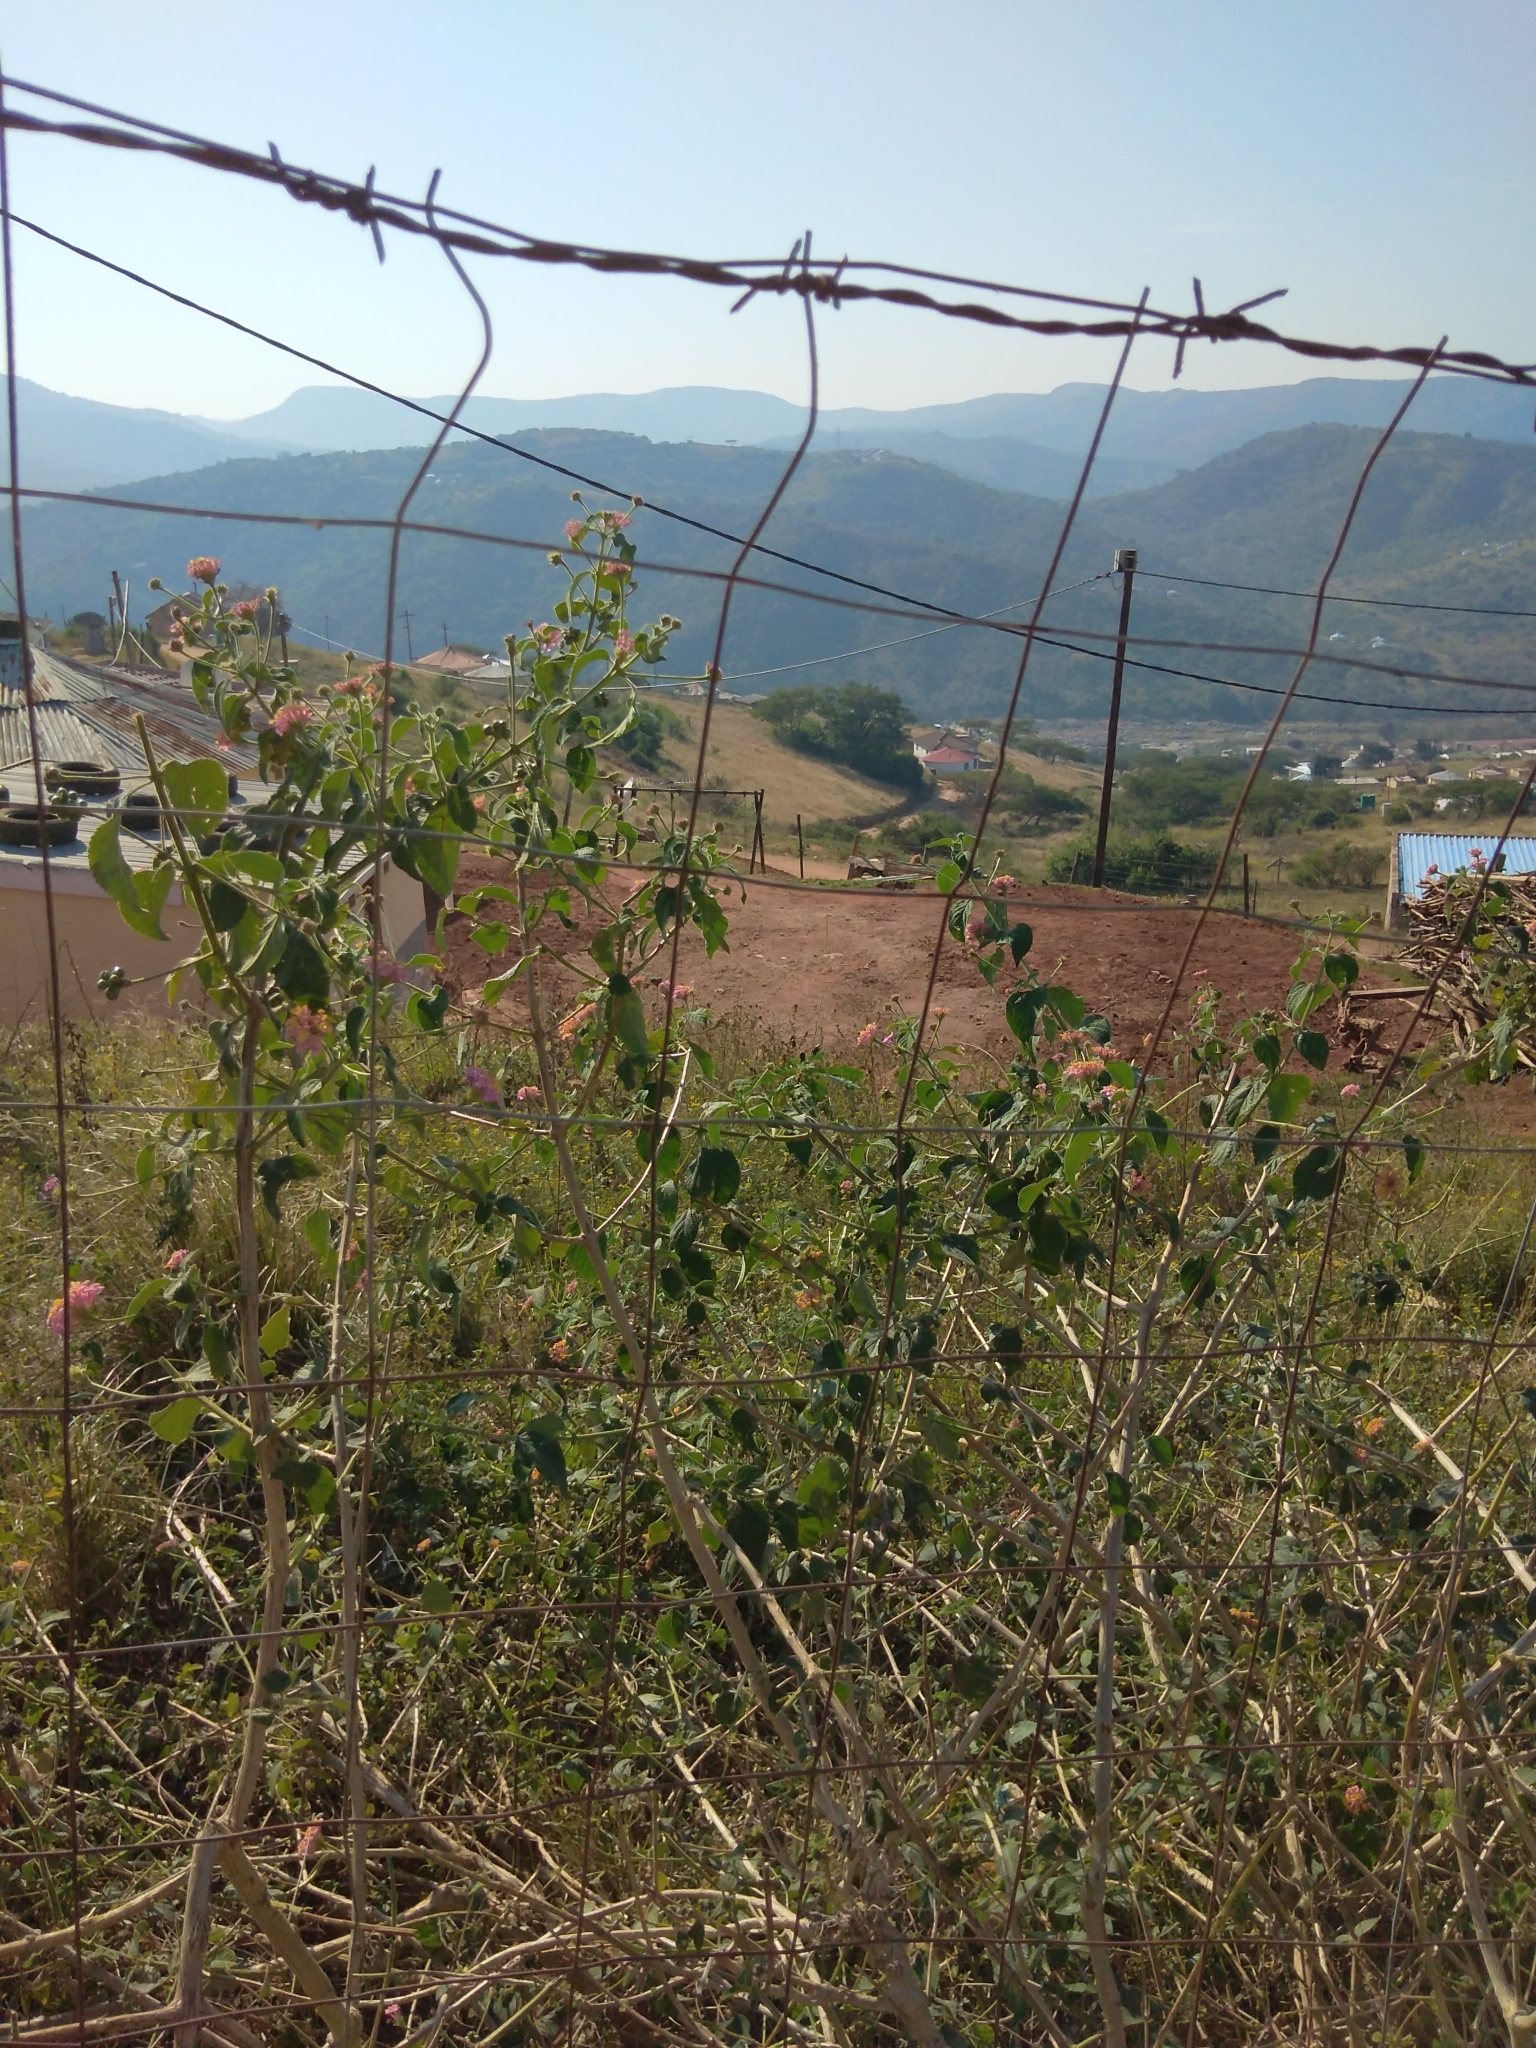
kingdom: Plantae
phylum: Tracheophyta
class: Magnoliopsida
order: Lamiales
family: Verbenaceae
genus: Lantana
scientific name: Lantana camara
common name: Lantana
